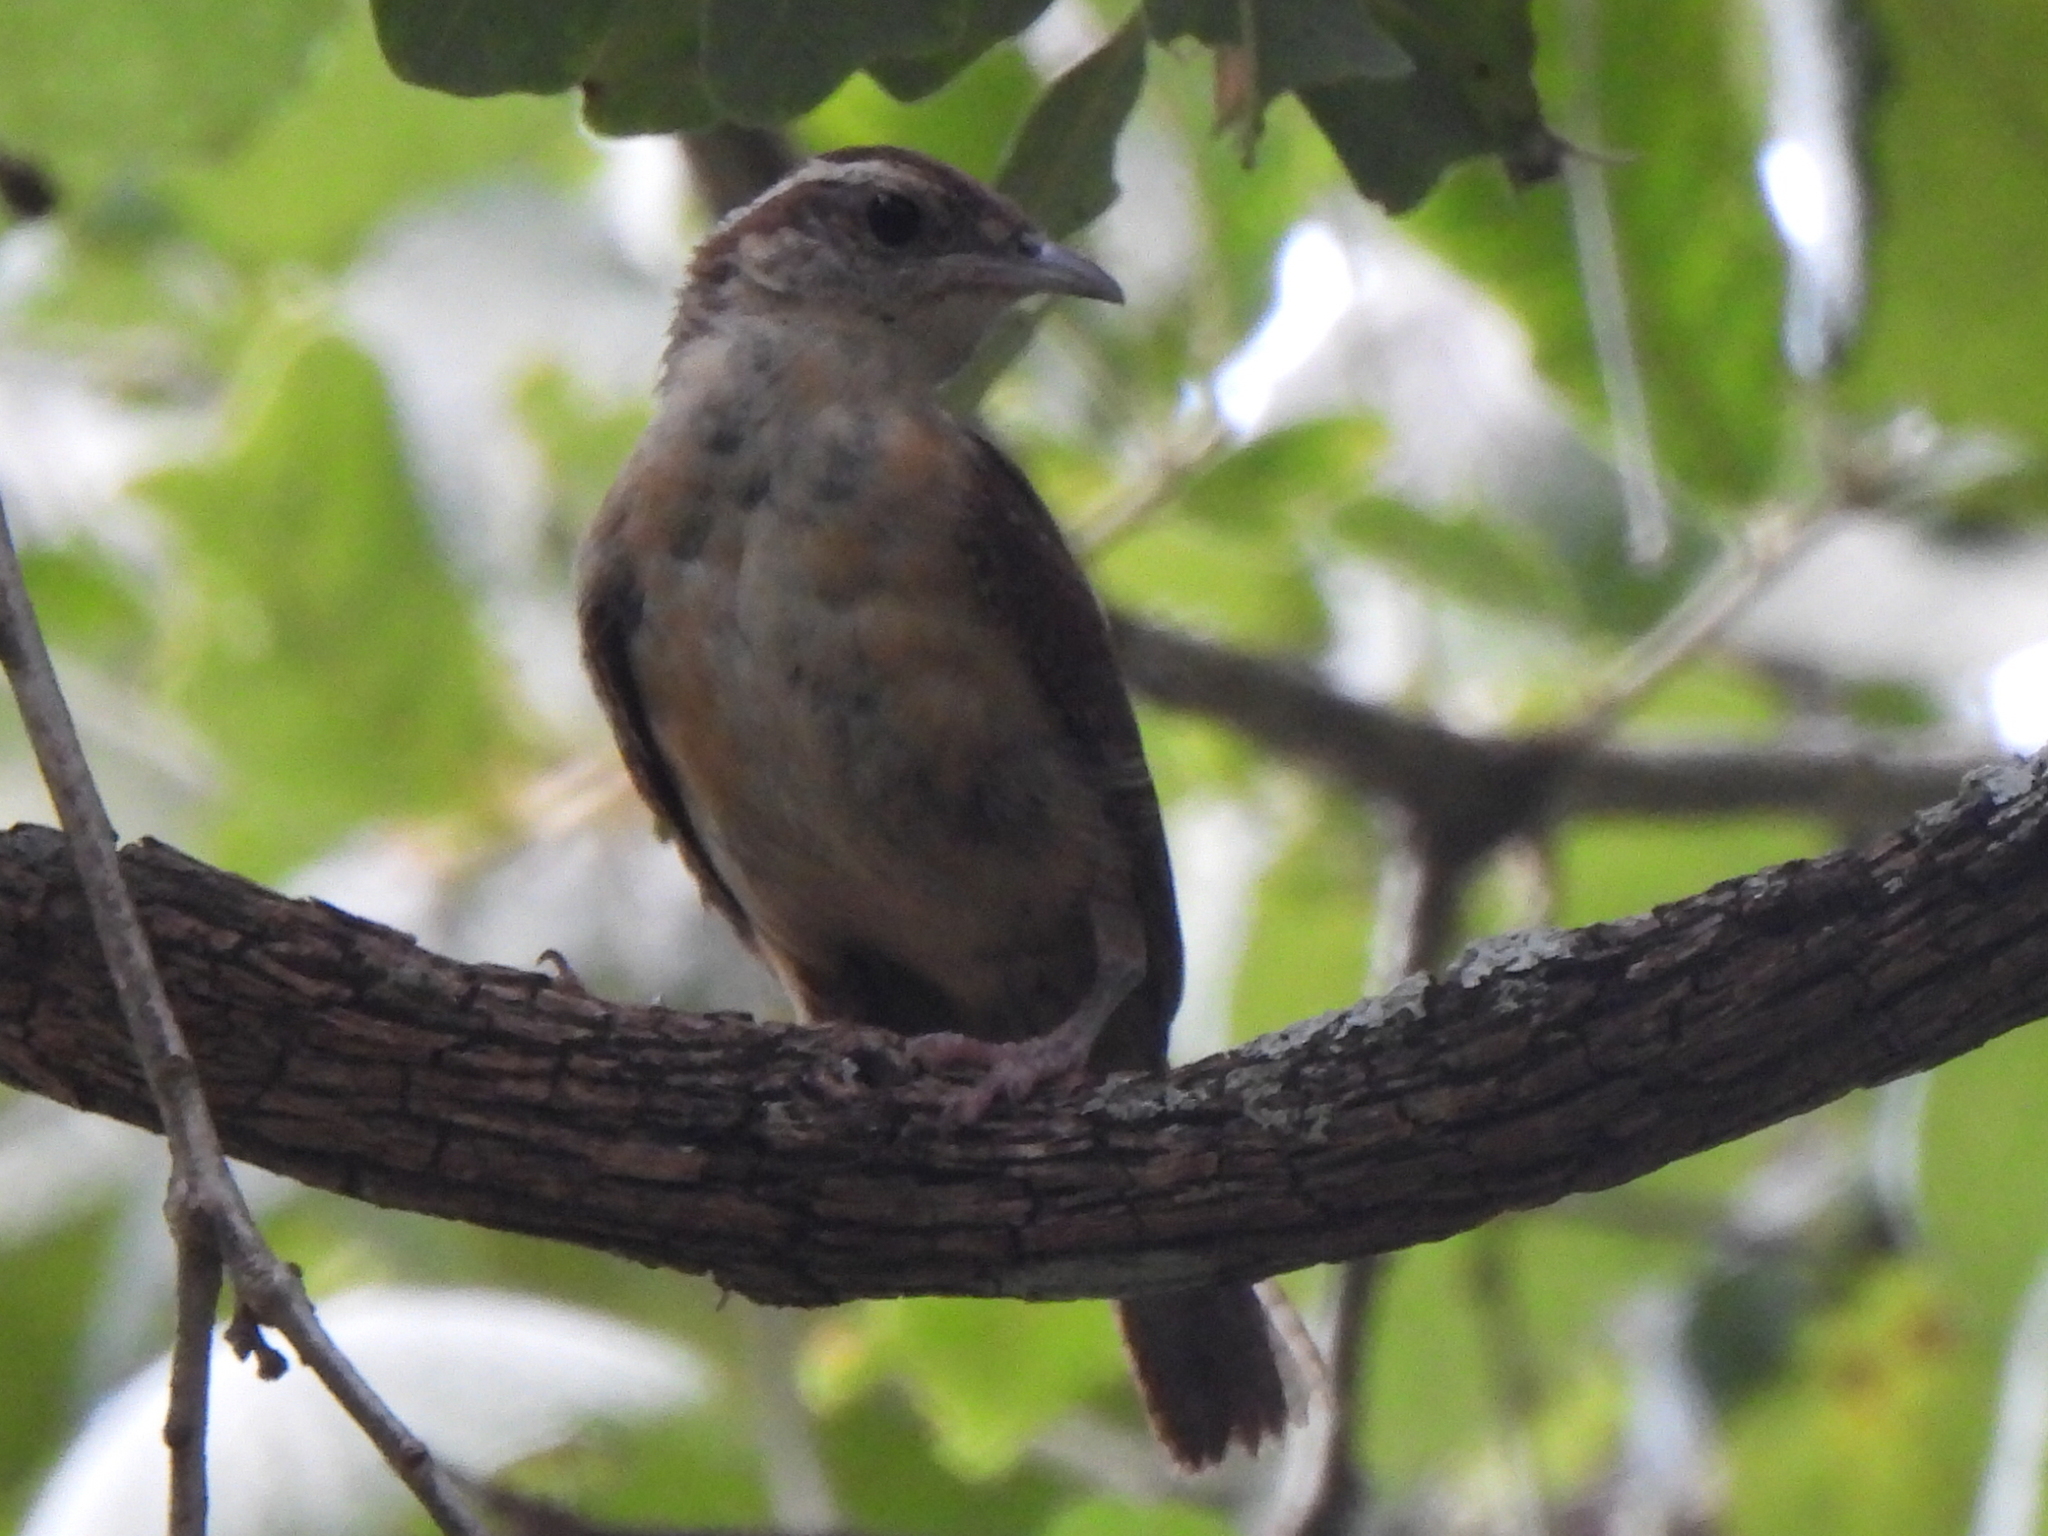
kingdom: Animalia
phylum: Chordata
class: Aves
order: Passeriformes
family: Troglodytidae
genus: Thryothorus
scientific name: Thryothorus ludovicianus
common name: Carolina wren
